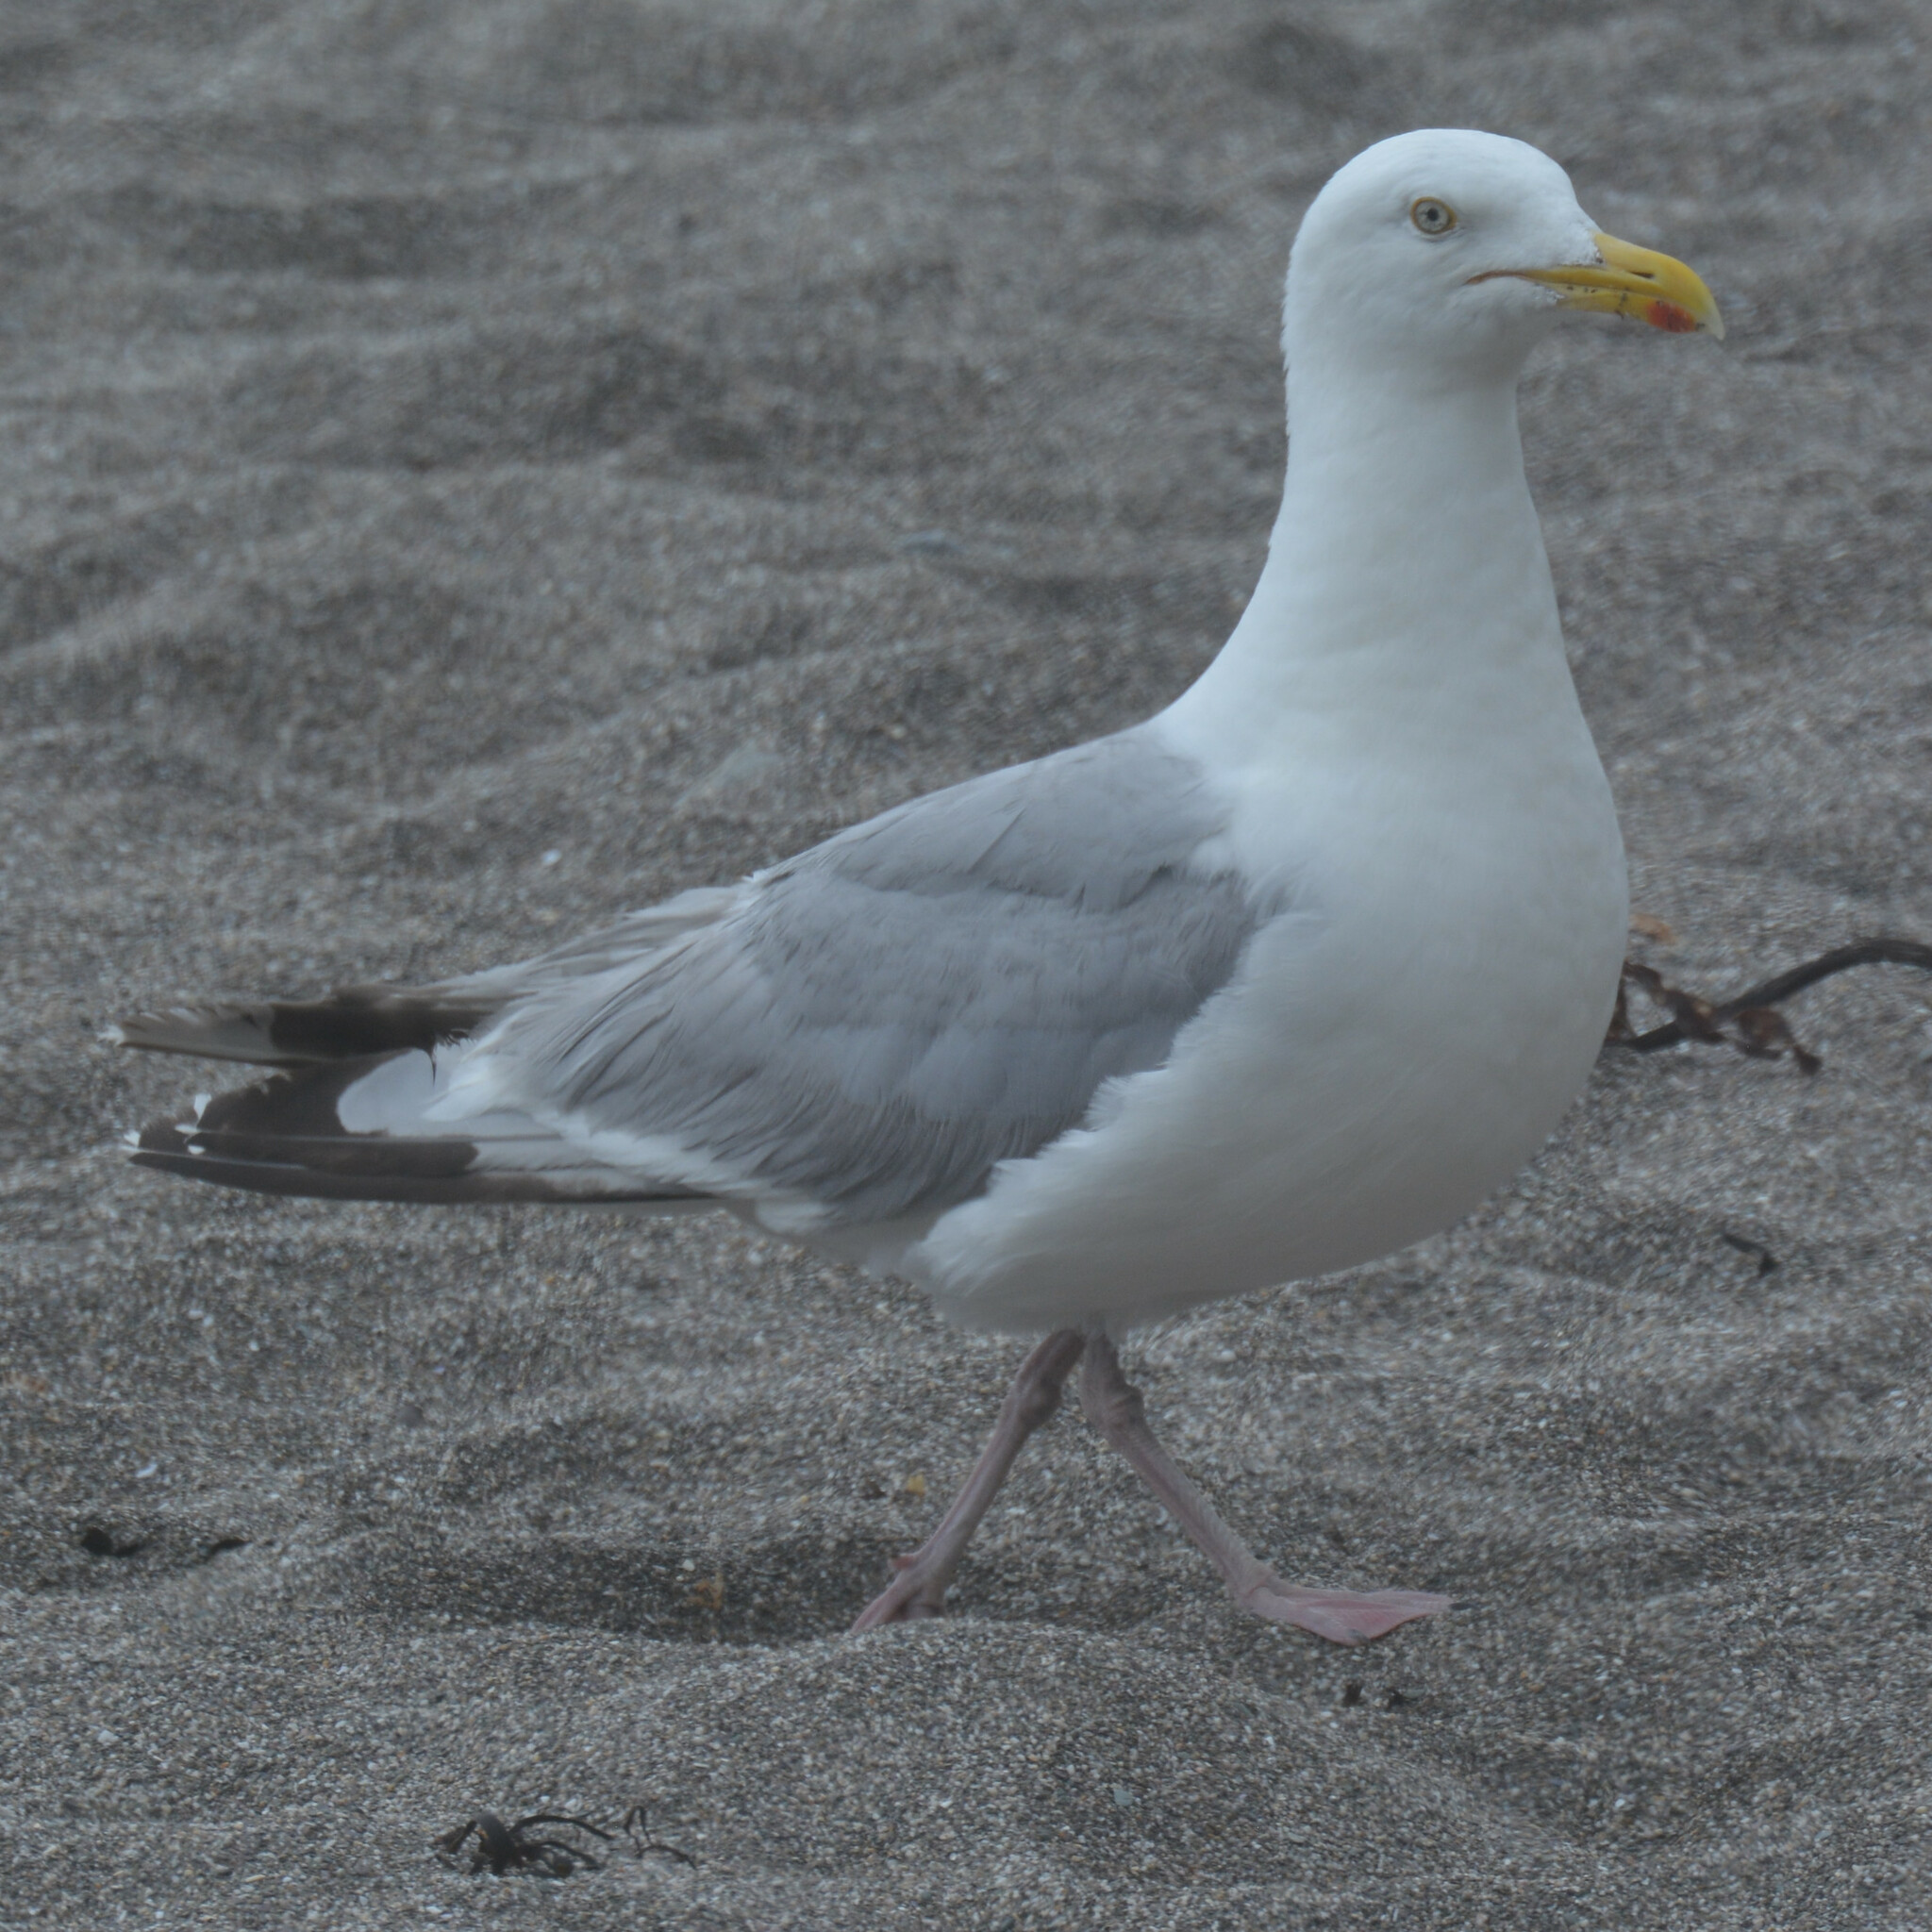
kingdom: Animalia
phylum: Chordata
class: Aves
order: Charadriiformes
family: Laridae
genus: Larus
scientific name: Larus argentatus
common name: Herring gull
